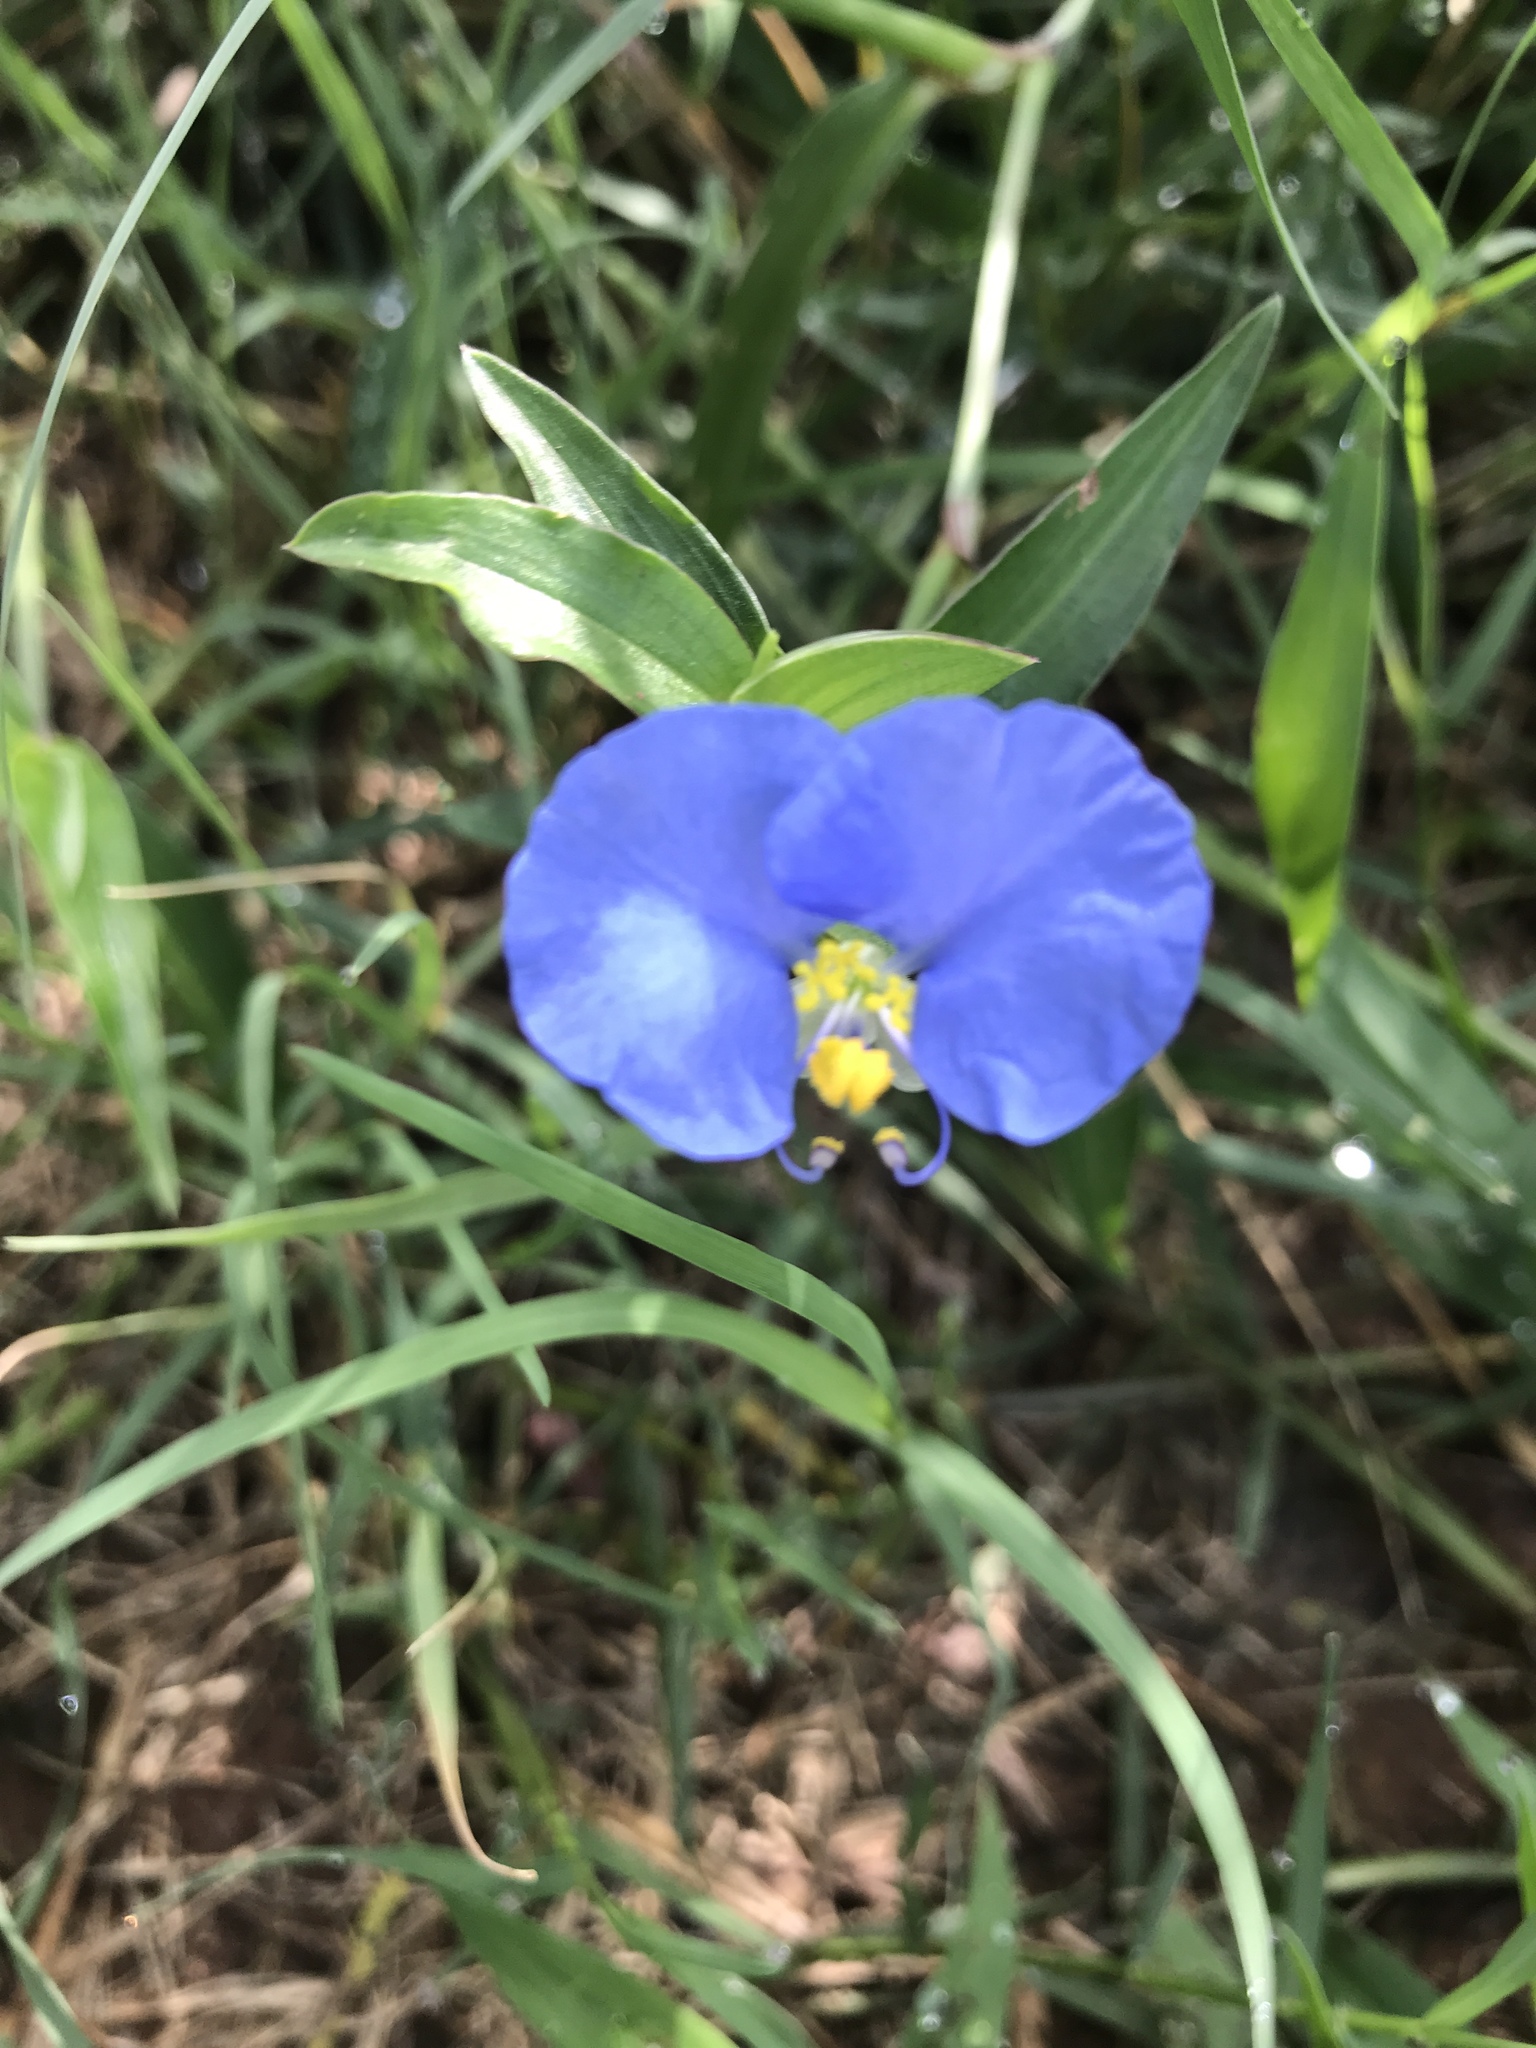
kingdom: Plantae
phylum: Tracheophyta
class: Liliopsida
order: Commelinales
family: Commelinaceae
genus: Commelina
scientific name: Commelina erecta
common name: Blousel blommetjie
